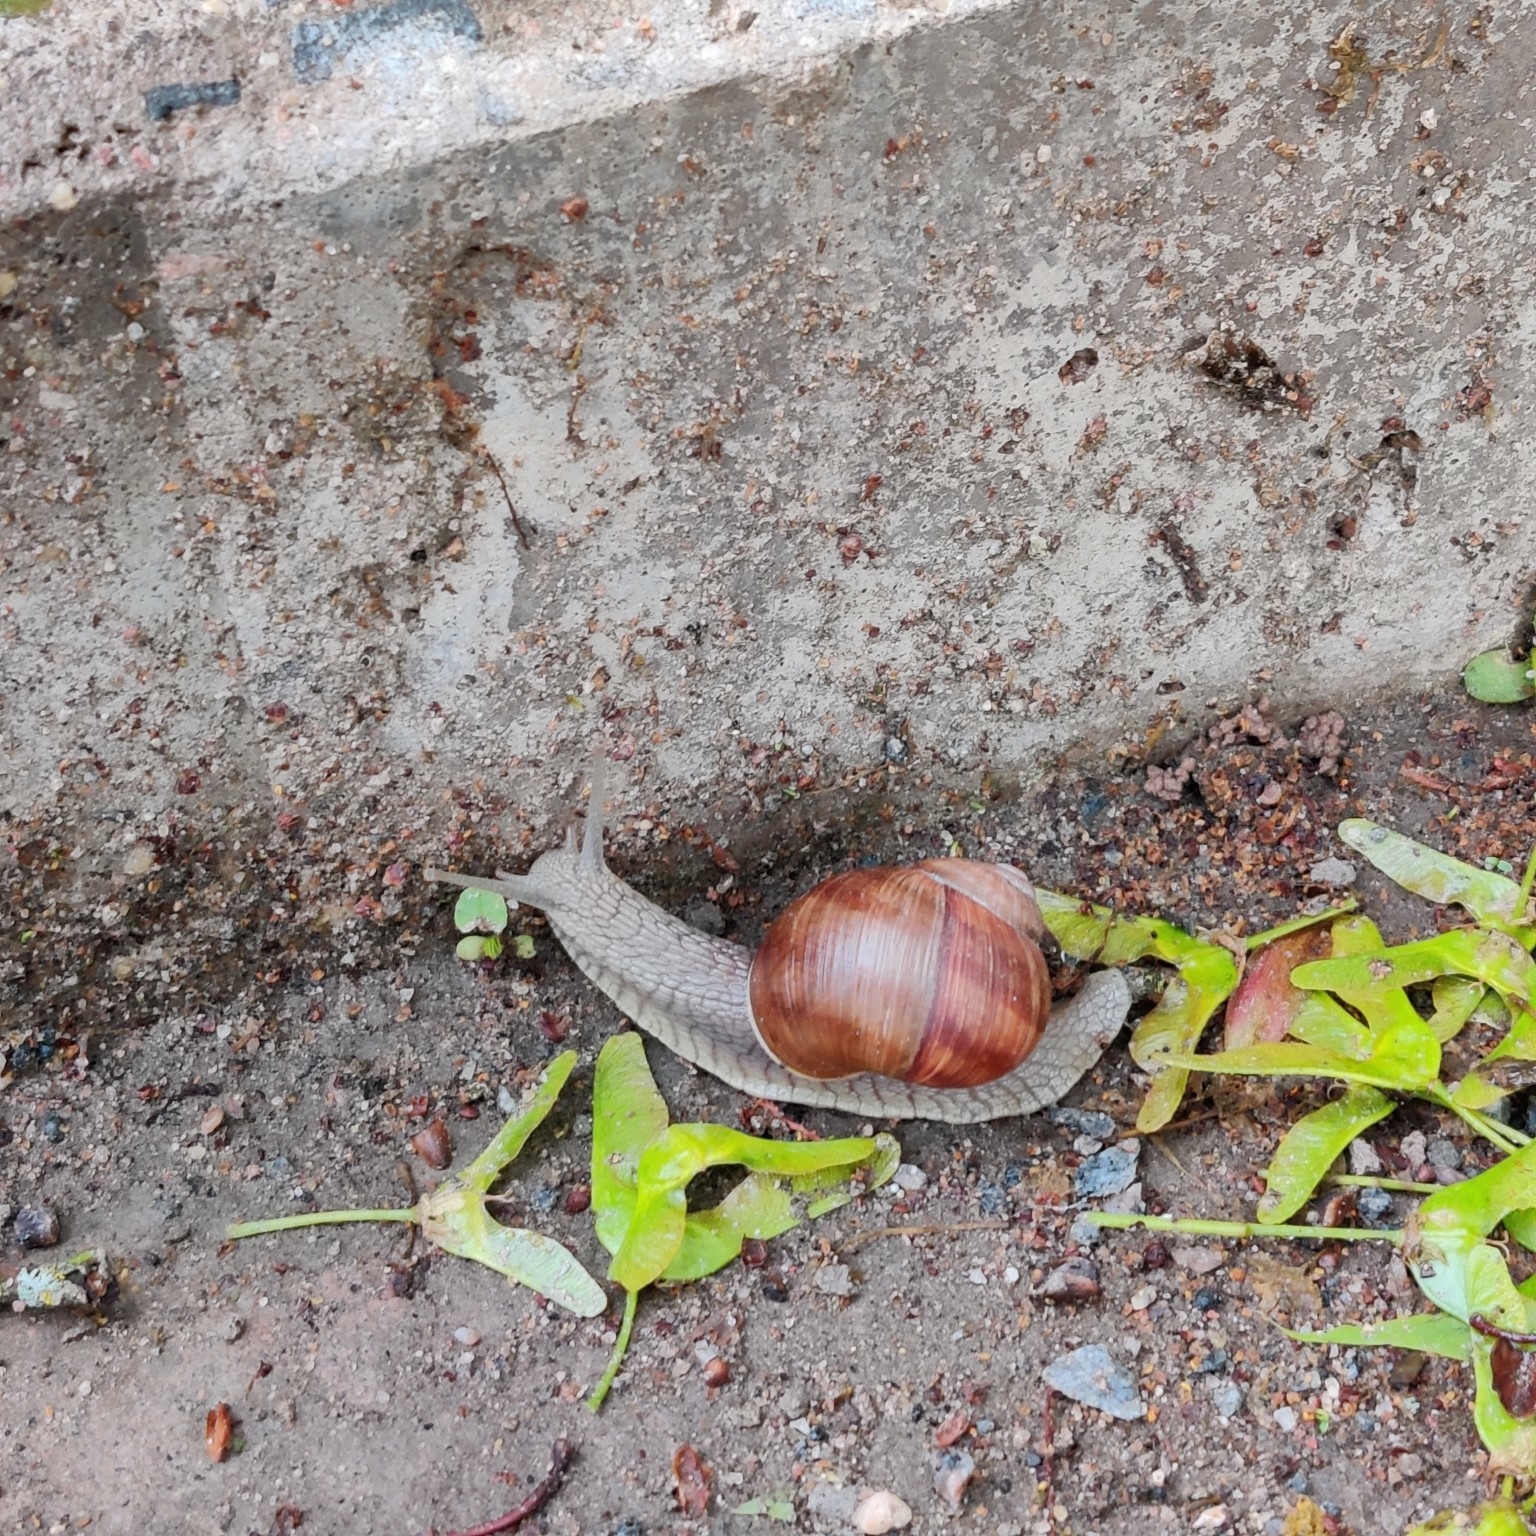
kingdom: Animalia
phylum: Mollusca
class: Gastropoda
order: Stylommatophora
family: Helicidae
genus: Helix
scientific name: Helix pomatia
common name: Roman snail
